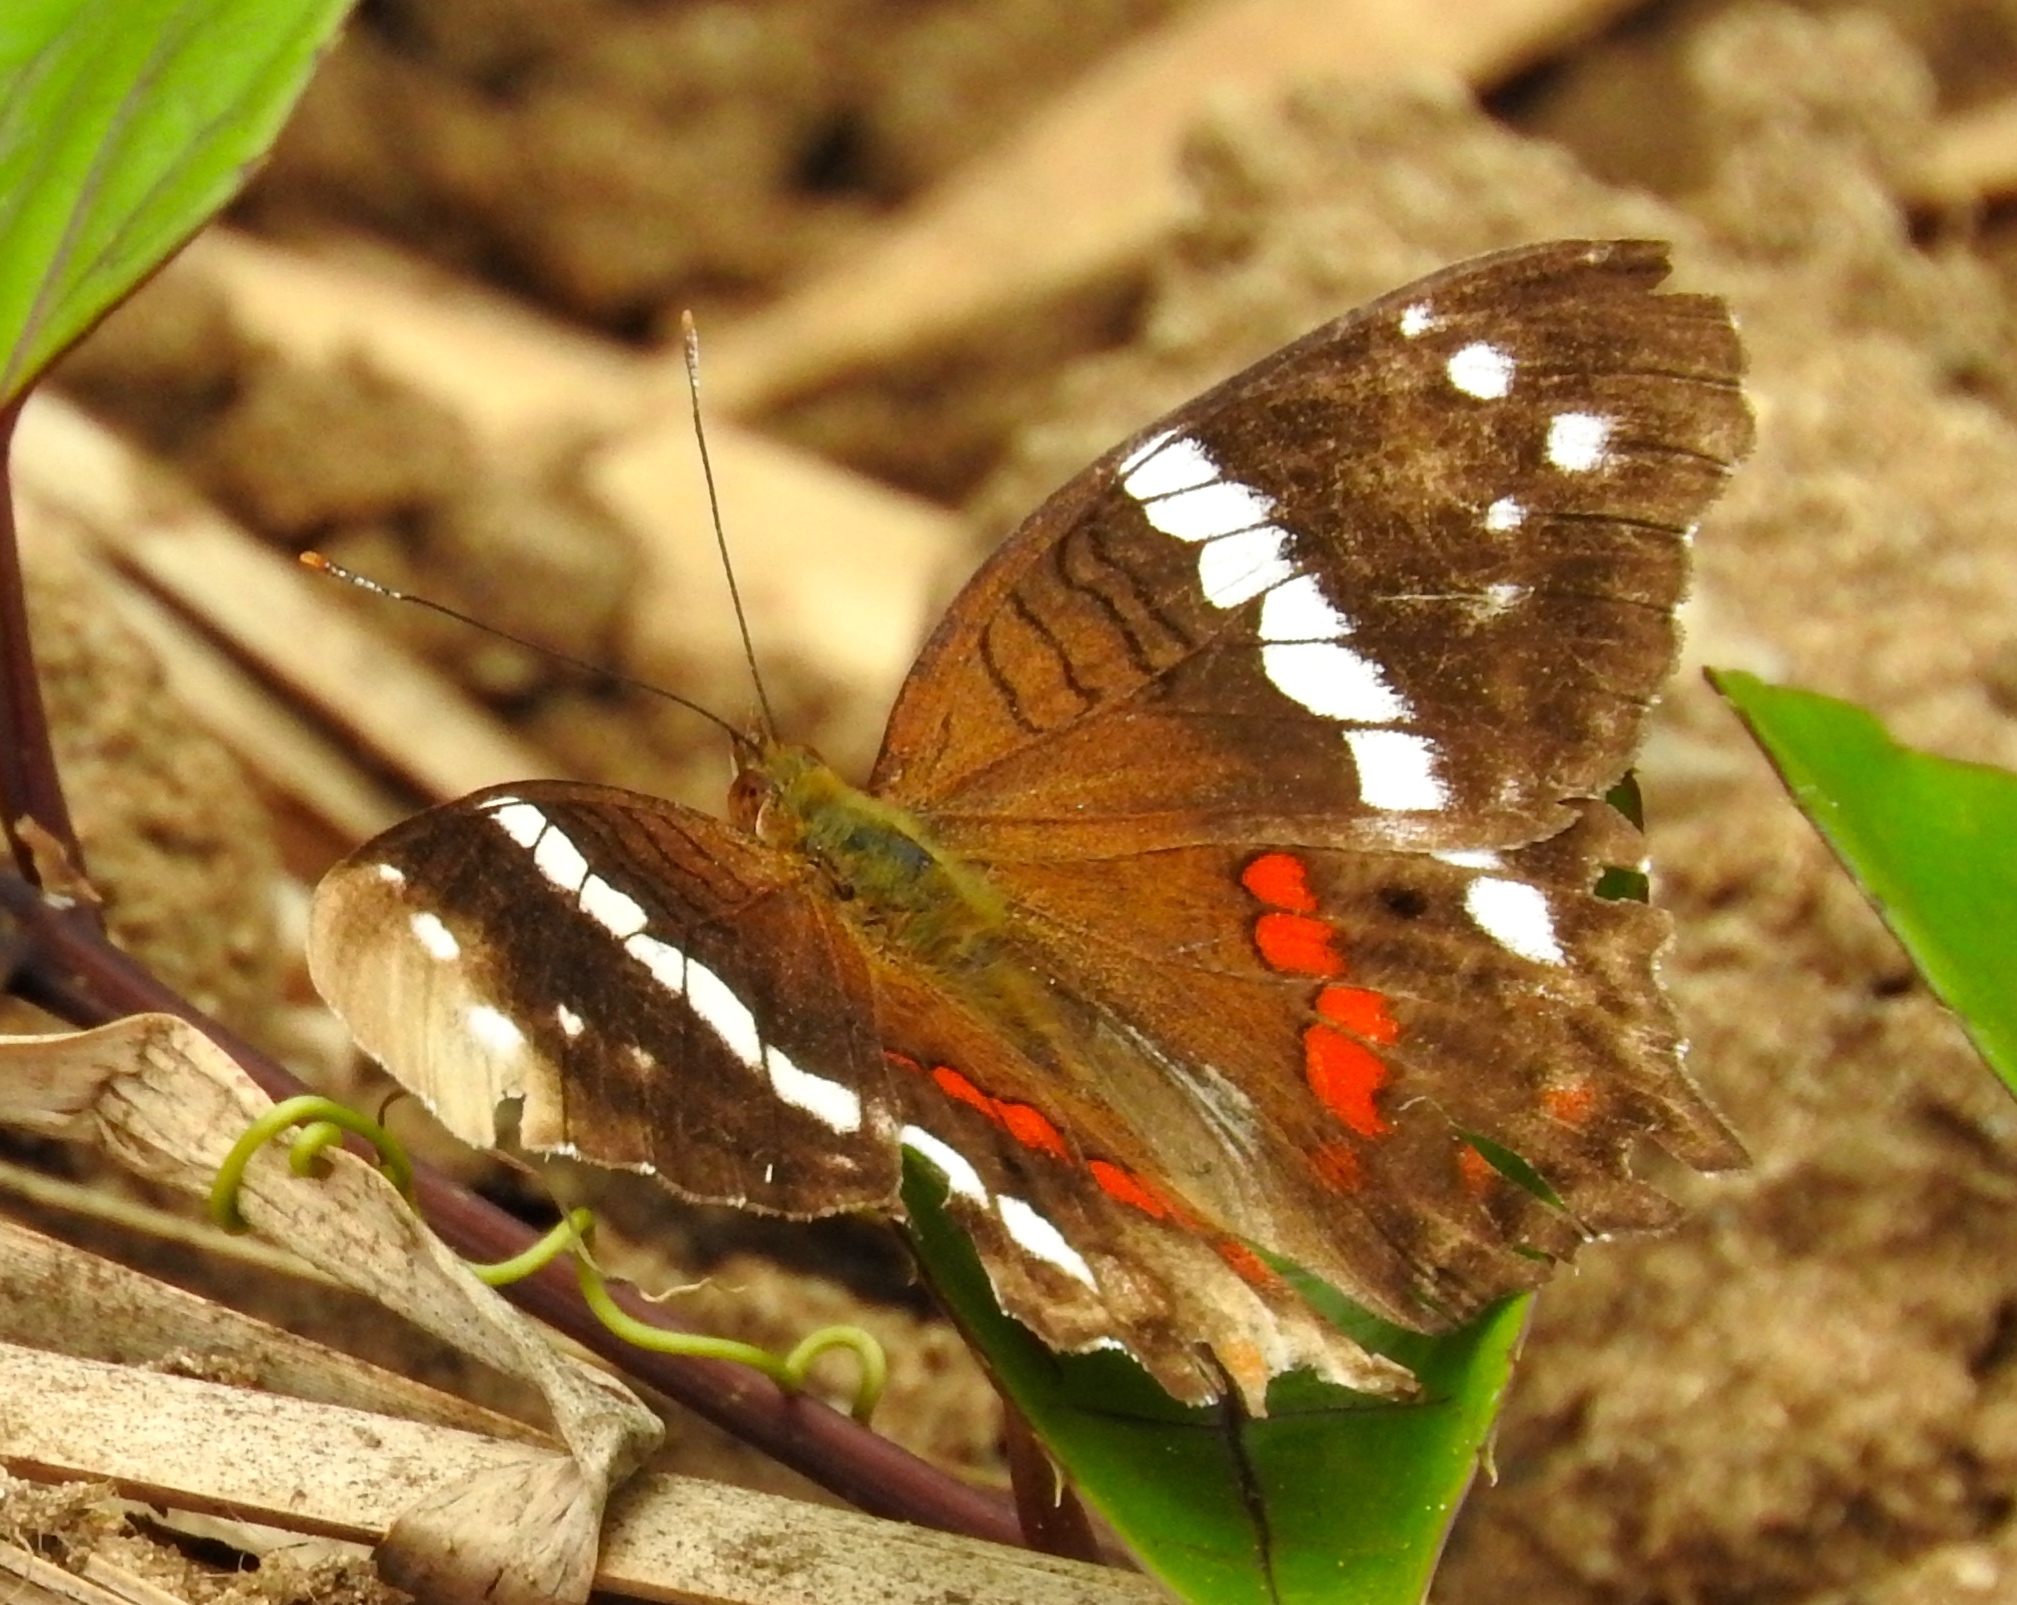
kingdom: Animalia
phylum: Arthropoda
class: Insecta
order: Lepidoptera
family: Nymphalidae
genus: Anartia
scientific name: Anartia fatima
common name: Banded peacock
